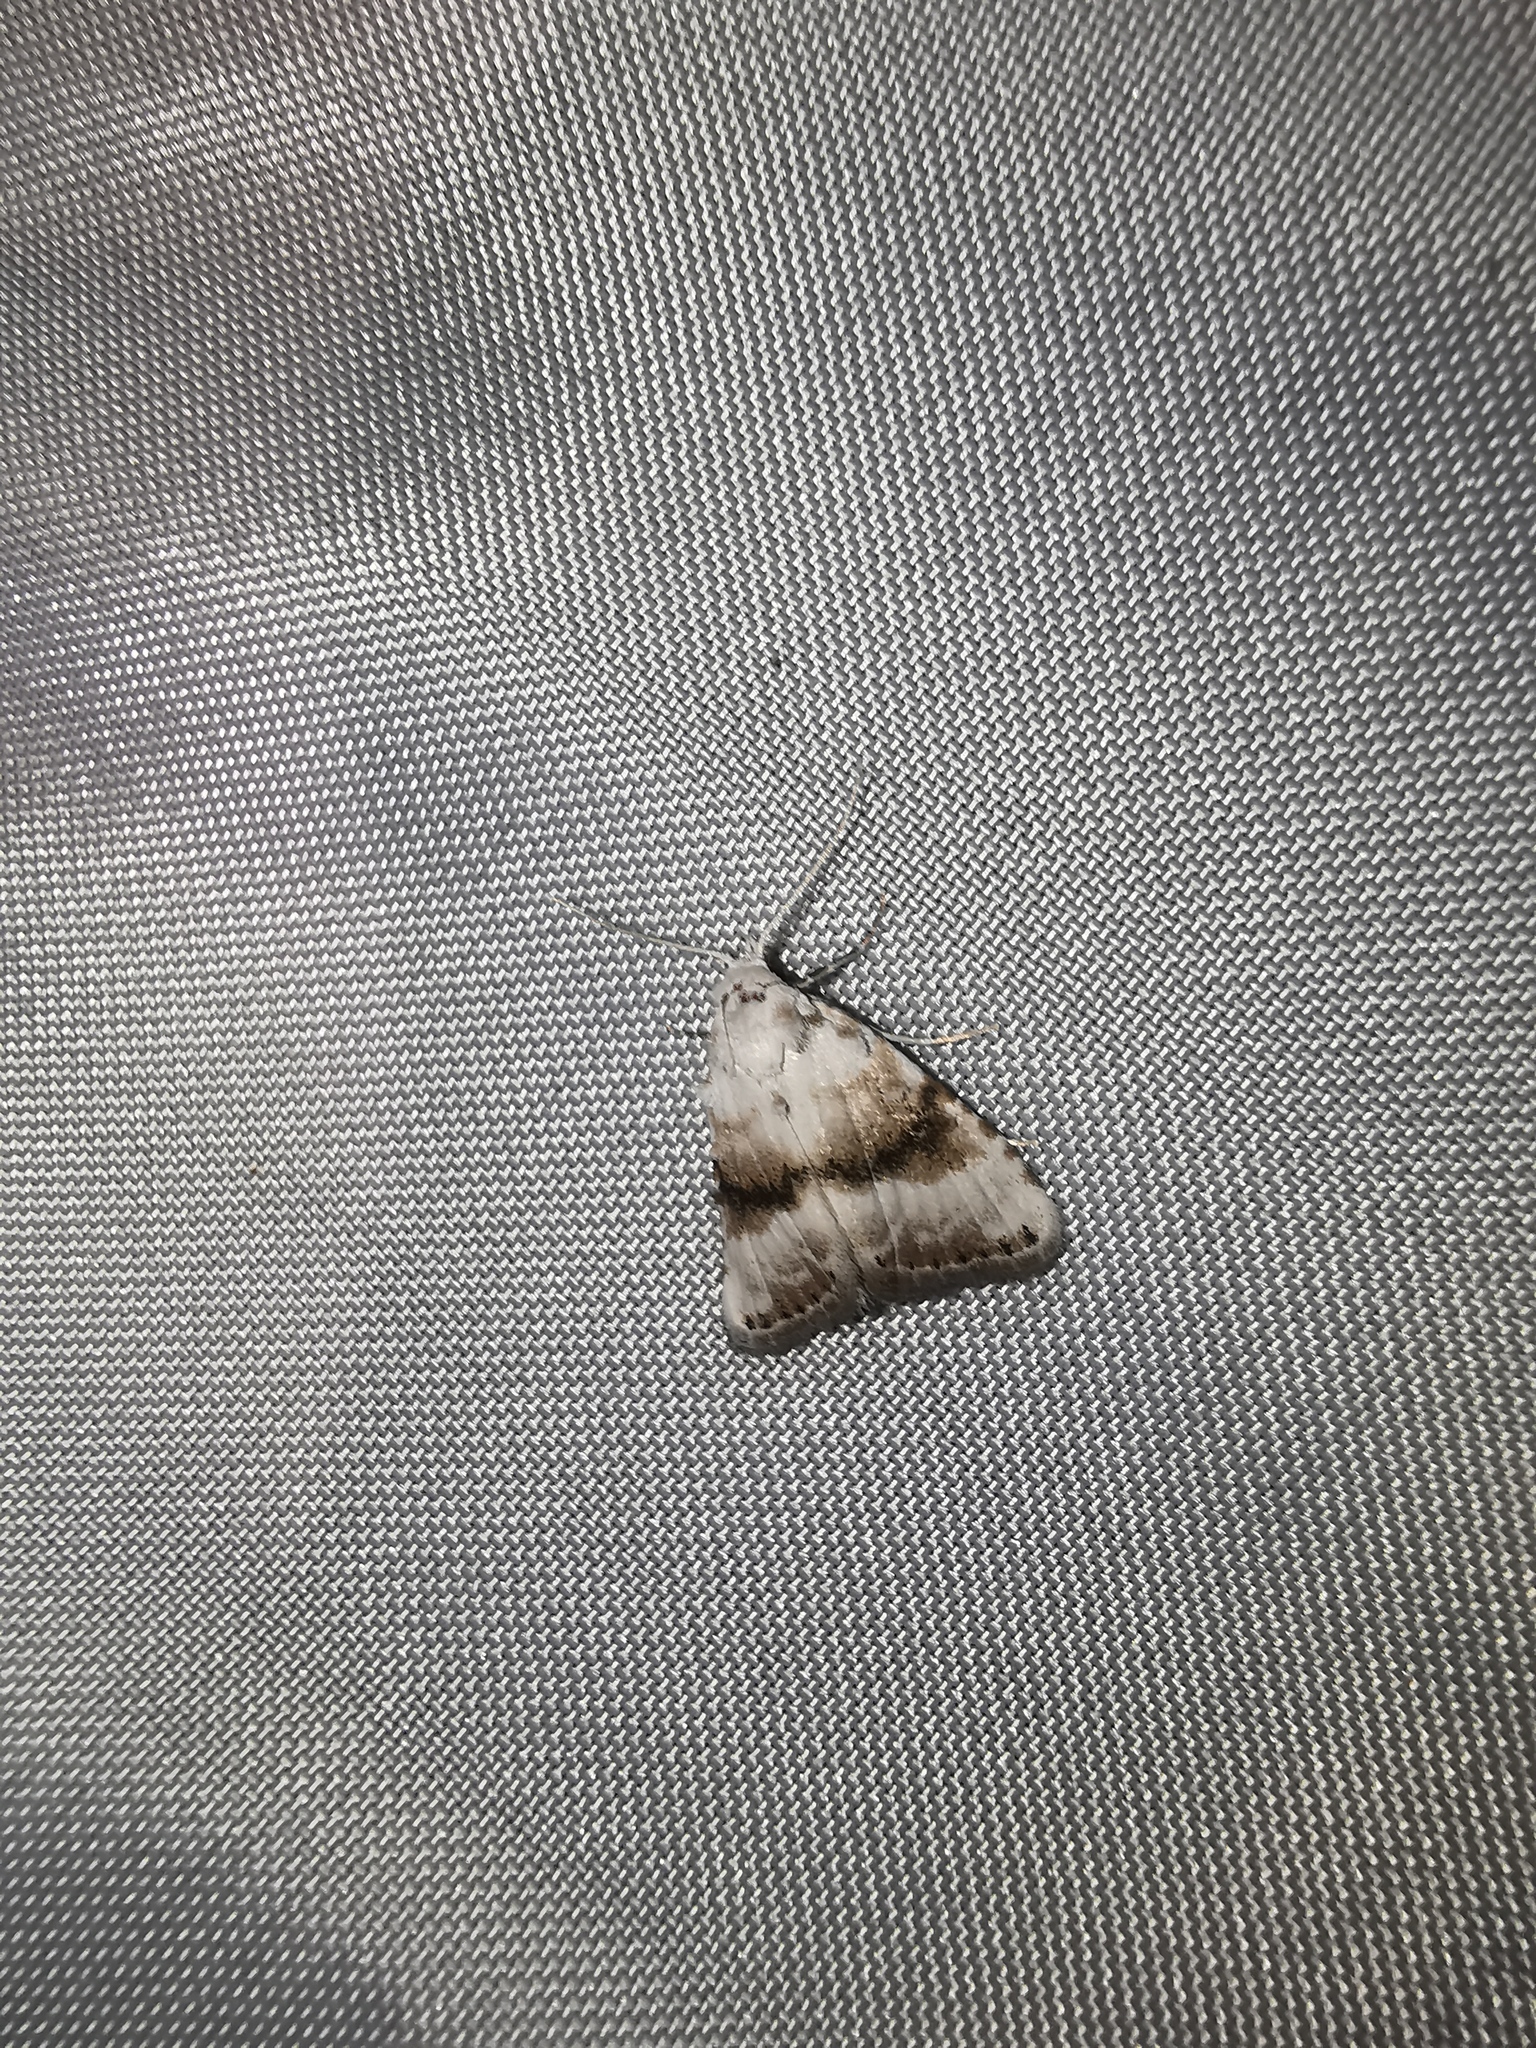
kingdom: Animalia
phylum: Arthropoda
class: Insecta
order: Lepidoptera
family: Nolidae
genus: Meganola
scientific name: Meganola albula
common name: Kent black arches
